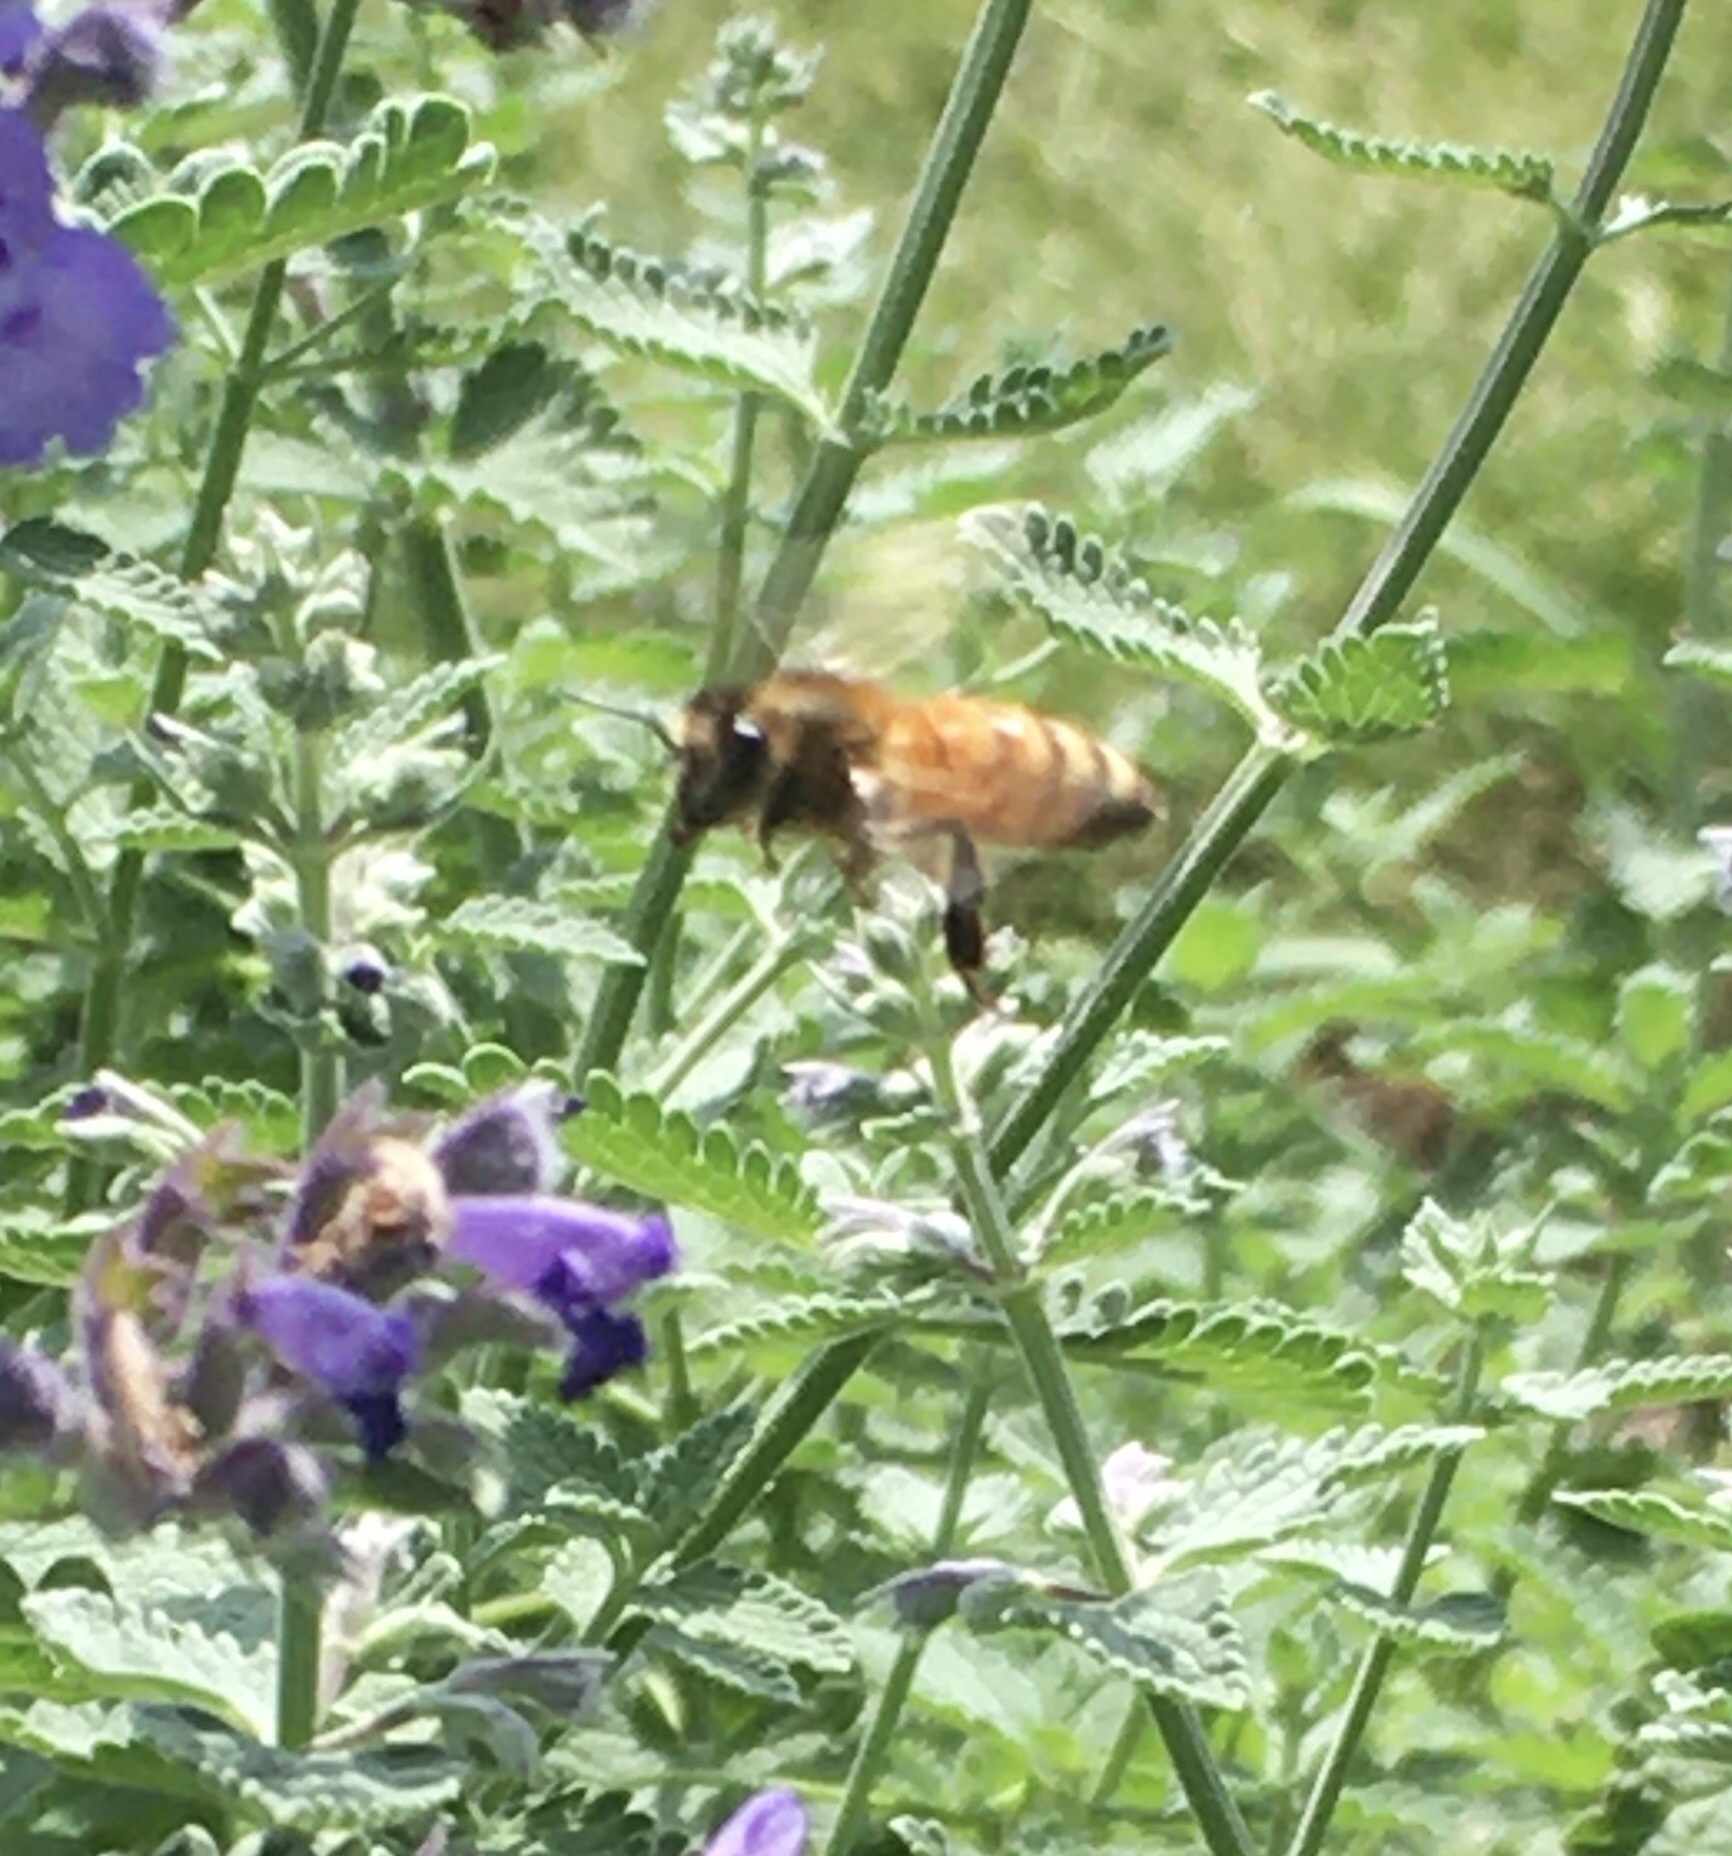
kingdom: Animalia
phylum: Arthropoda
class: Insecta
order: Hymenoptera
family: Apidae
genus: Apis
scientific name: Apis mellifera
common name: Honey bee
